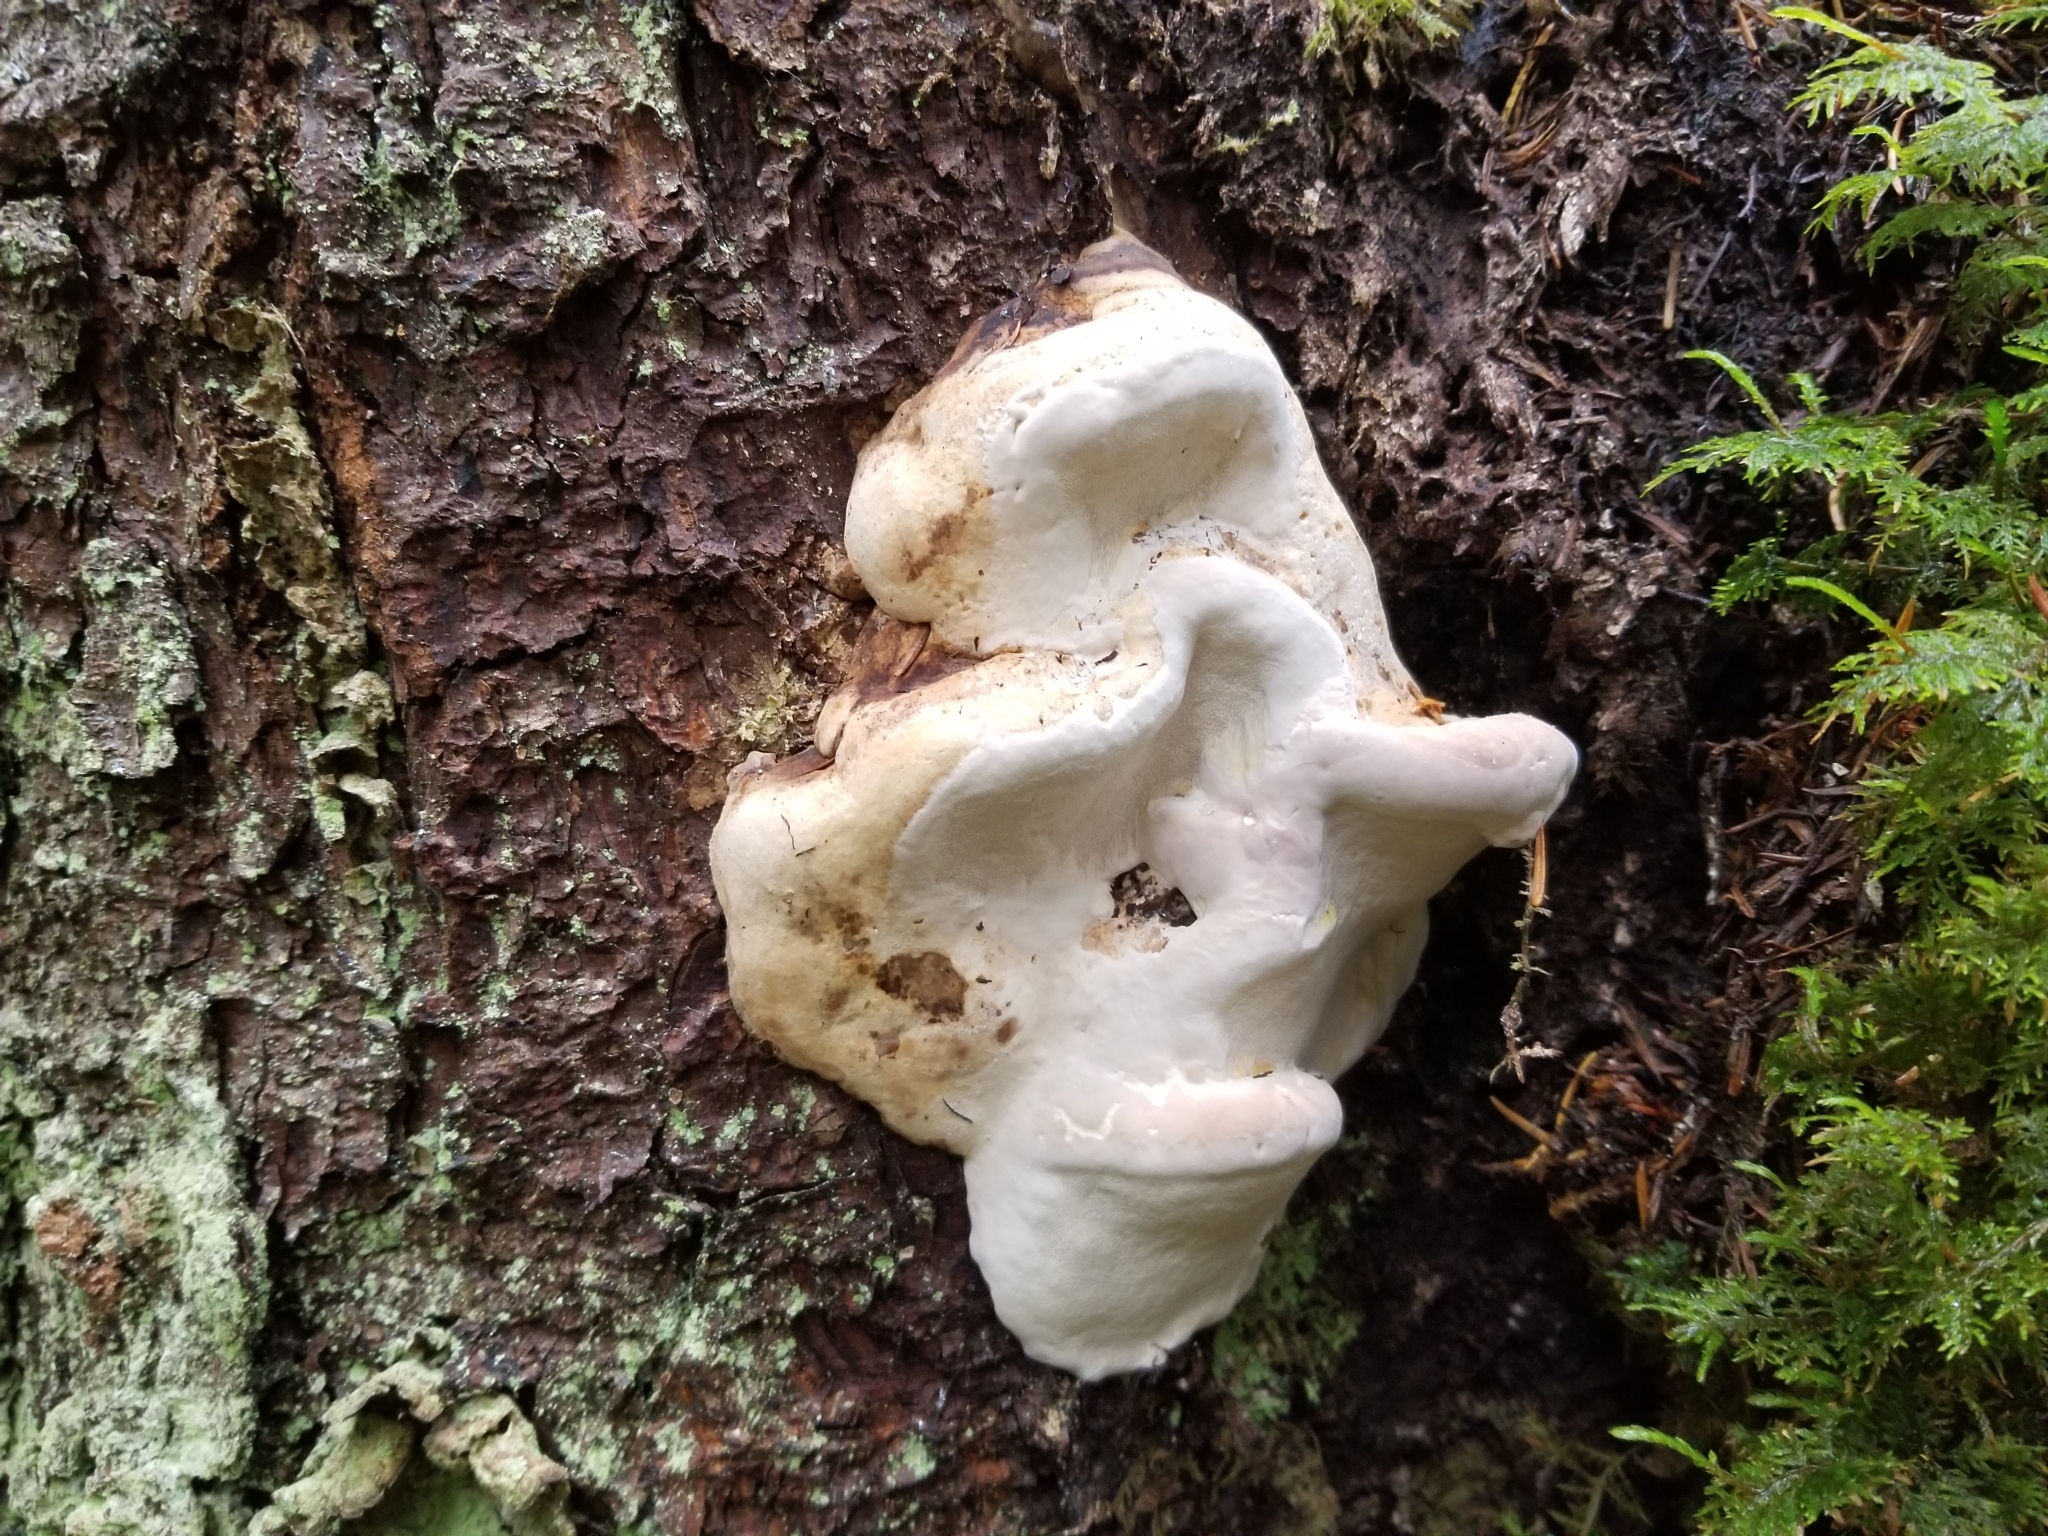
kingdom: Fungi
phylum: Basidiomycota
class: Agaricomycetes
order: Polyporales
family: Fomitopsidaceae
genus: Fomitopsis
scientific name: Fomitopsis
